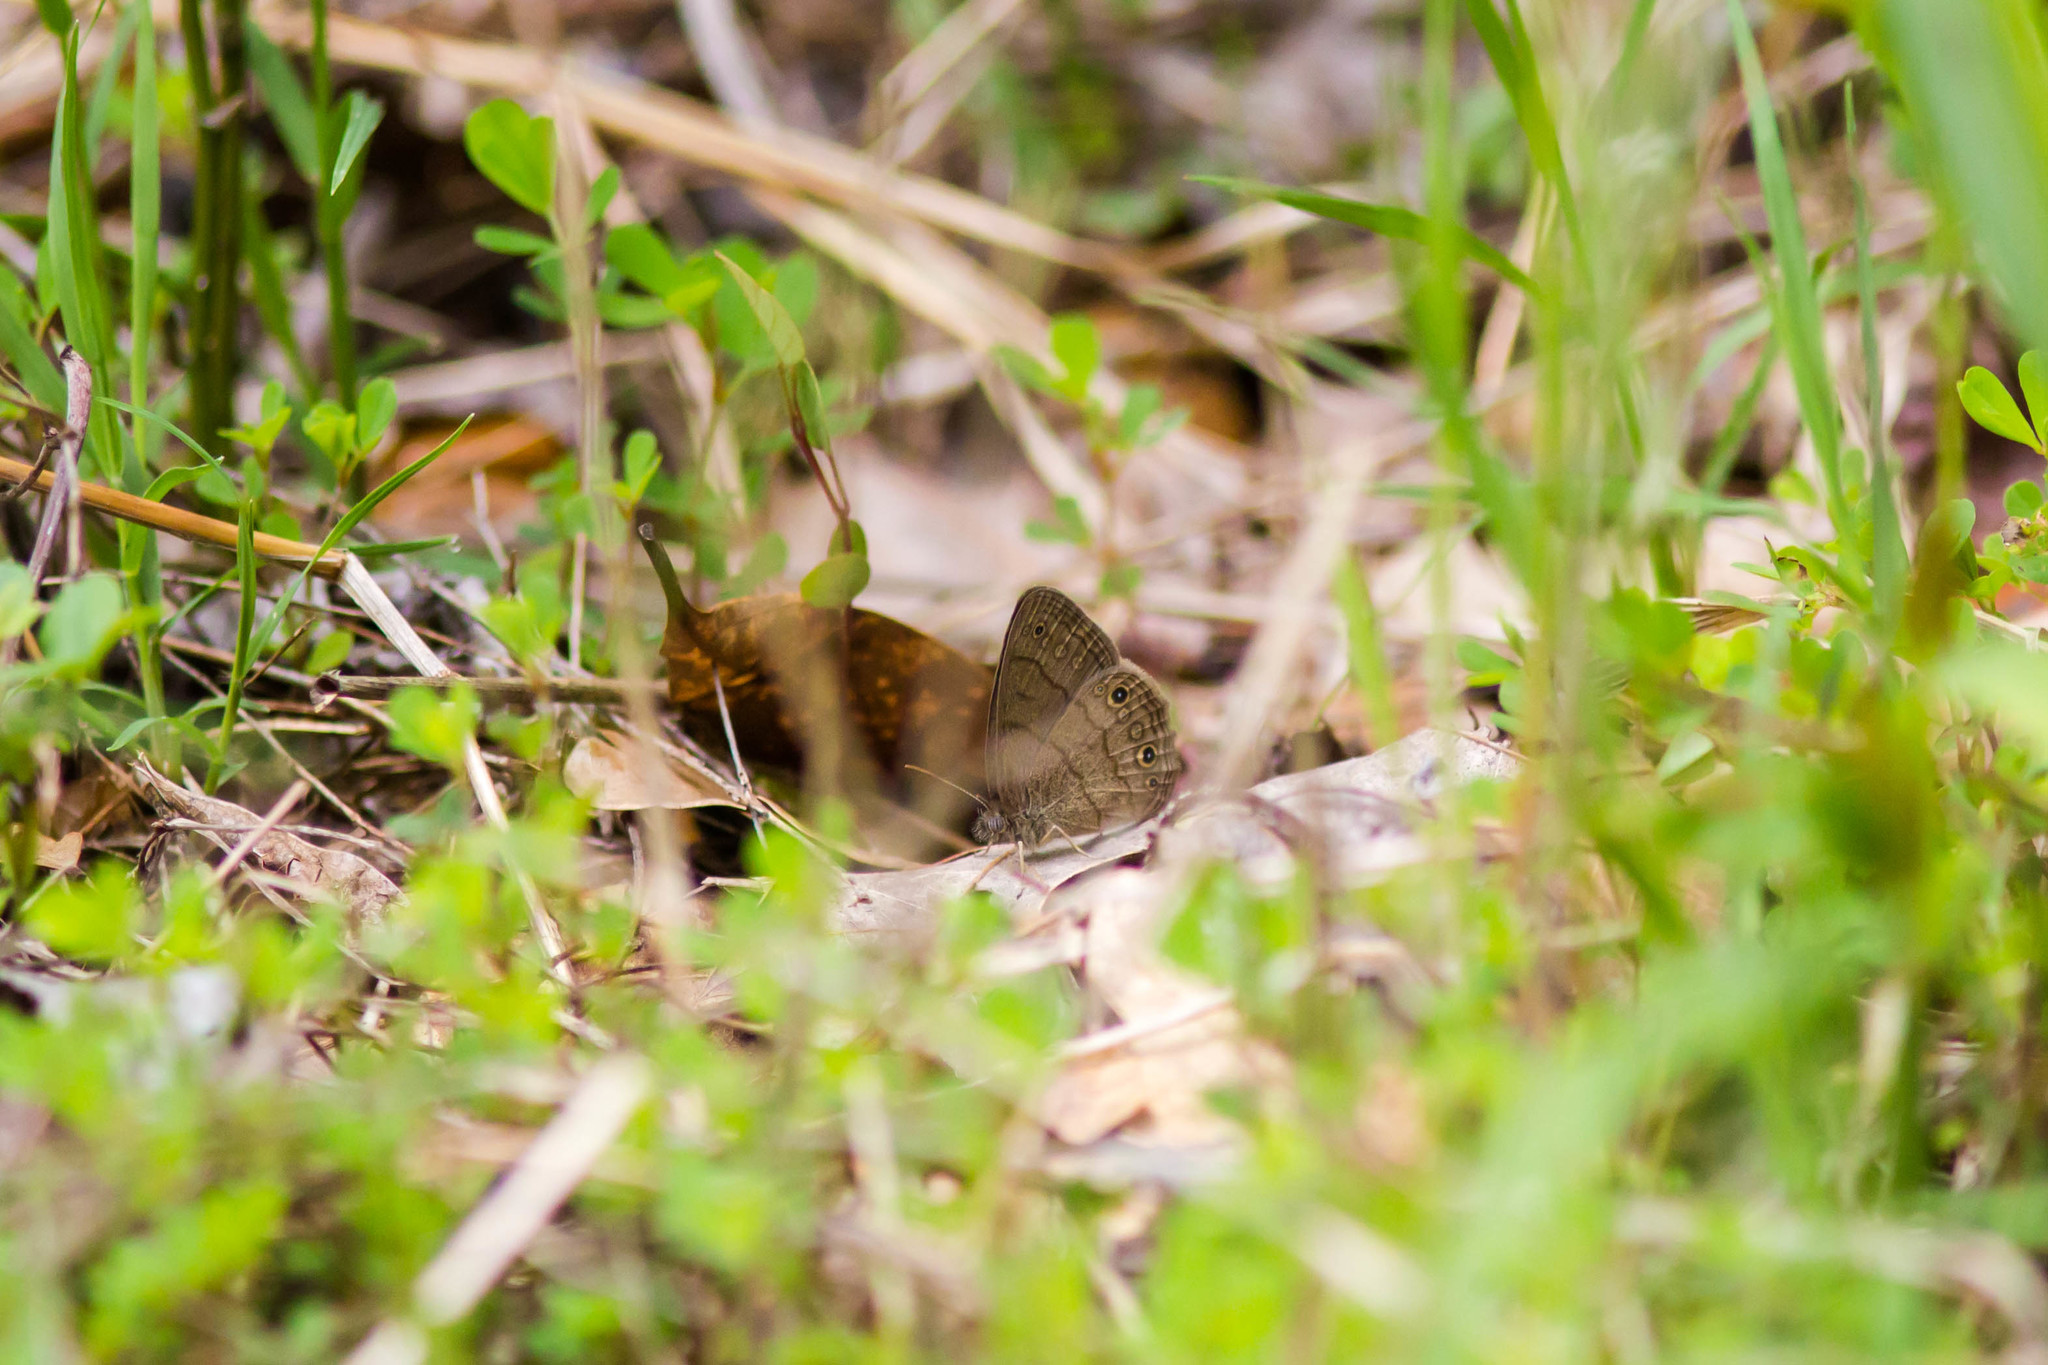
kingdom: Animalia
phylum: Arthropoda
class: Insecta
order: Lepidoptera
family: Nymphalidae
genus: Hermeuptychia
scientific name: Hermeuptychia hermes
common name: Hermes satyr
